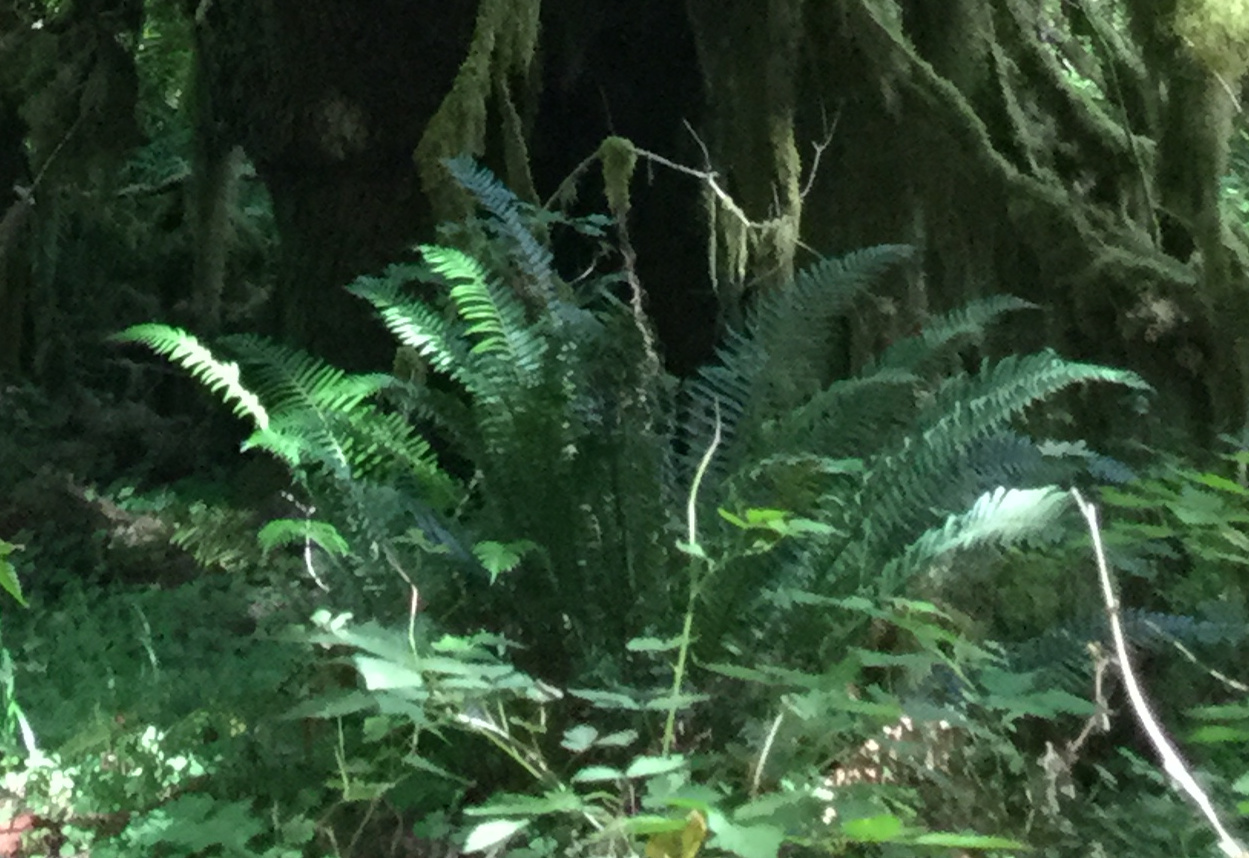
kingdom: Plantae
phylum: Tracheophyta
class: Polypodiopsida
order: Polypodiales
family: Dryopteridaceae
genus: Polystichum
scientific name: Polystichum munitum
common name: Western sword-fern
